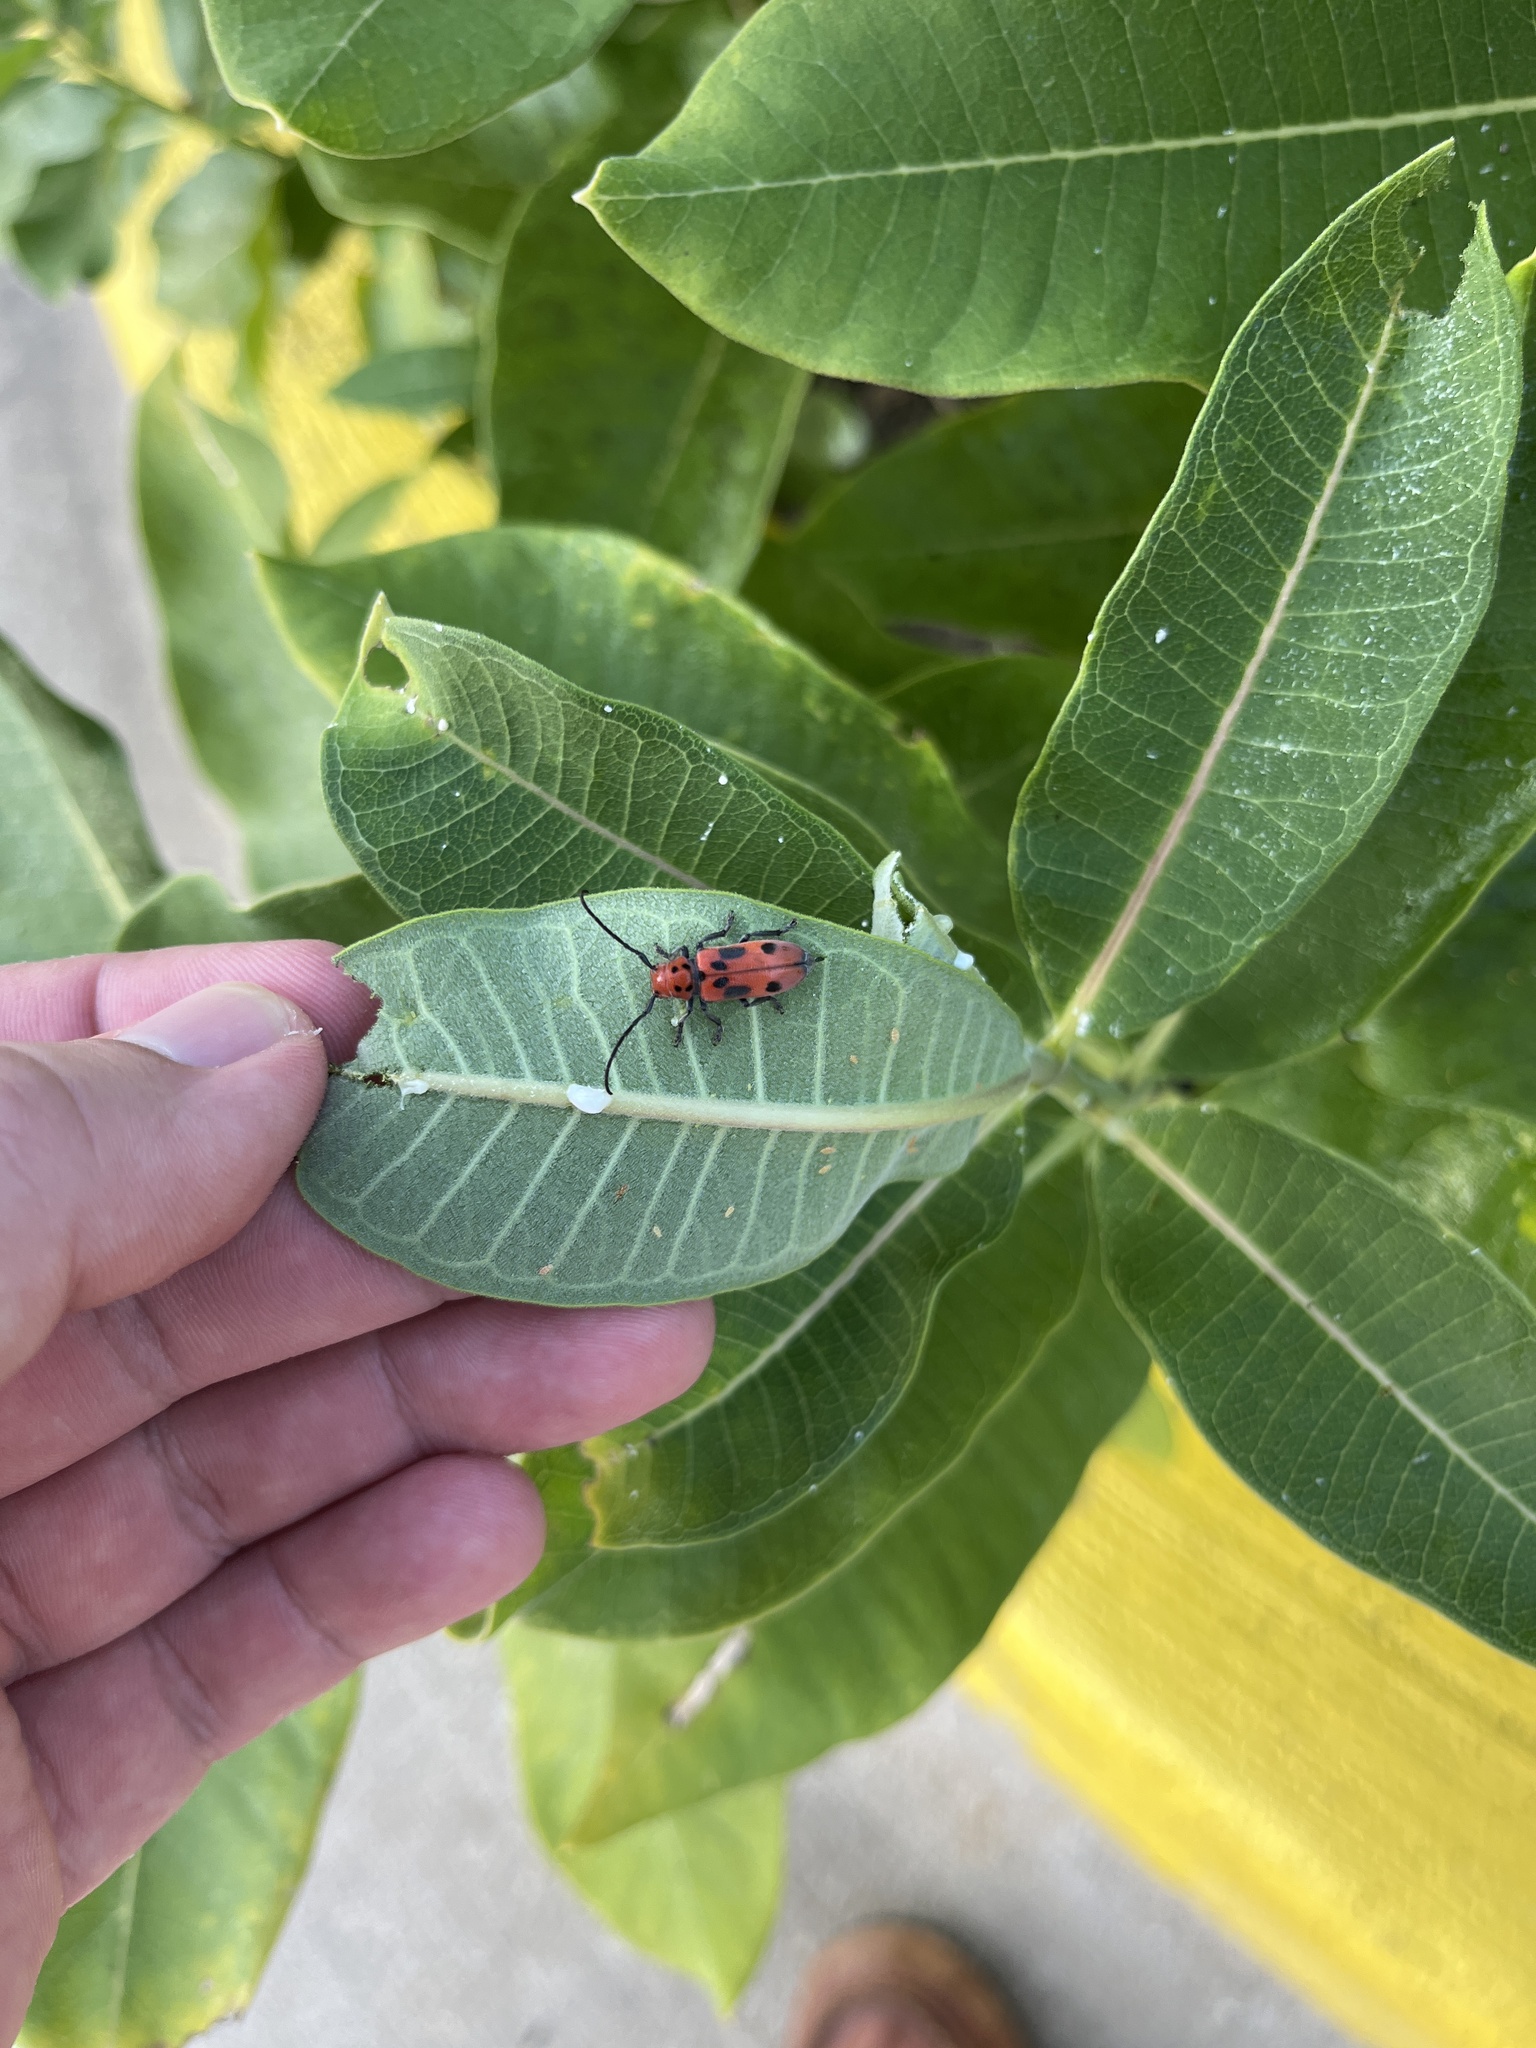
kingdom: Animalia
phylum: Arthropoda
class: Insecta
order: Coleoptera
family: Cerambycidae
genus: Tetraopes
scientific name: Tetraopes tetrophthalmus
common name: Red milkweed beetle
